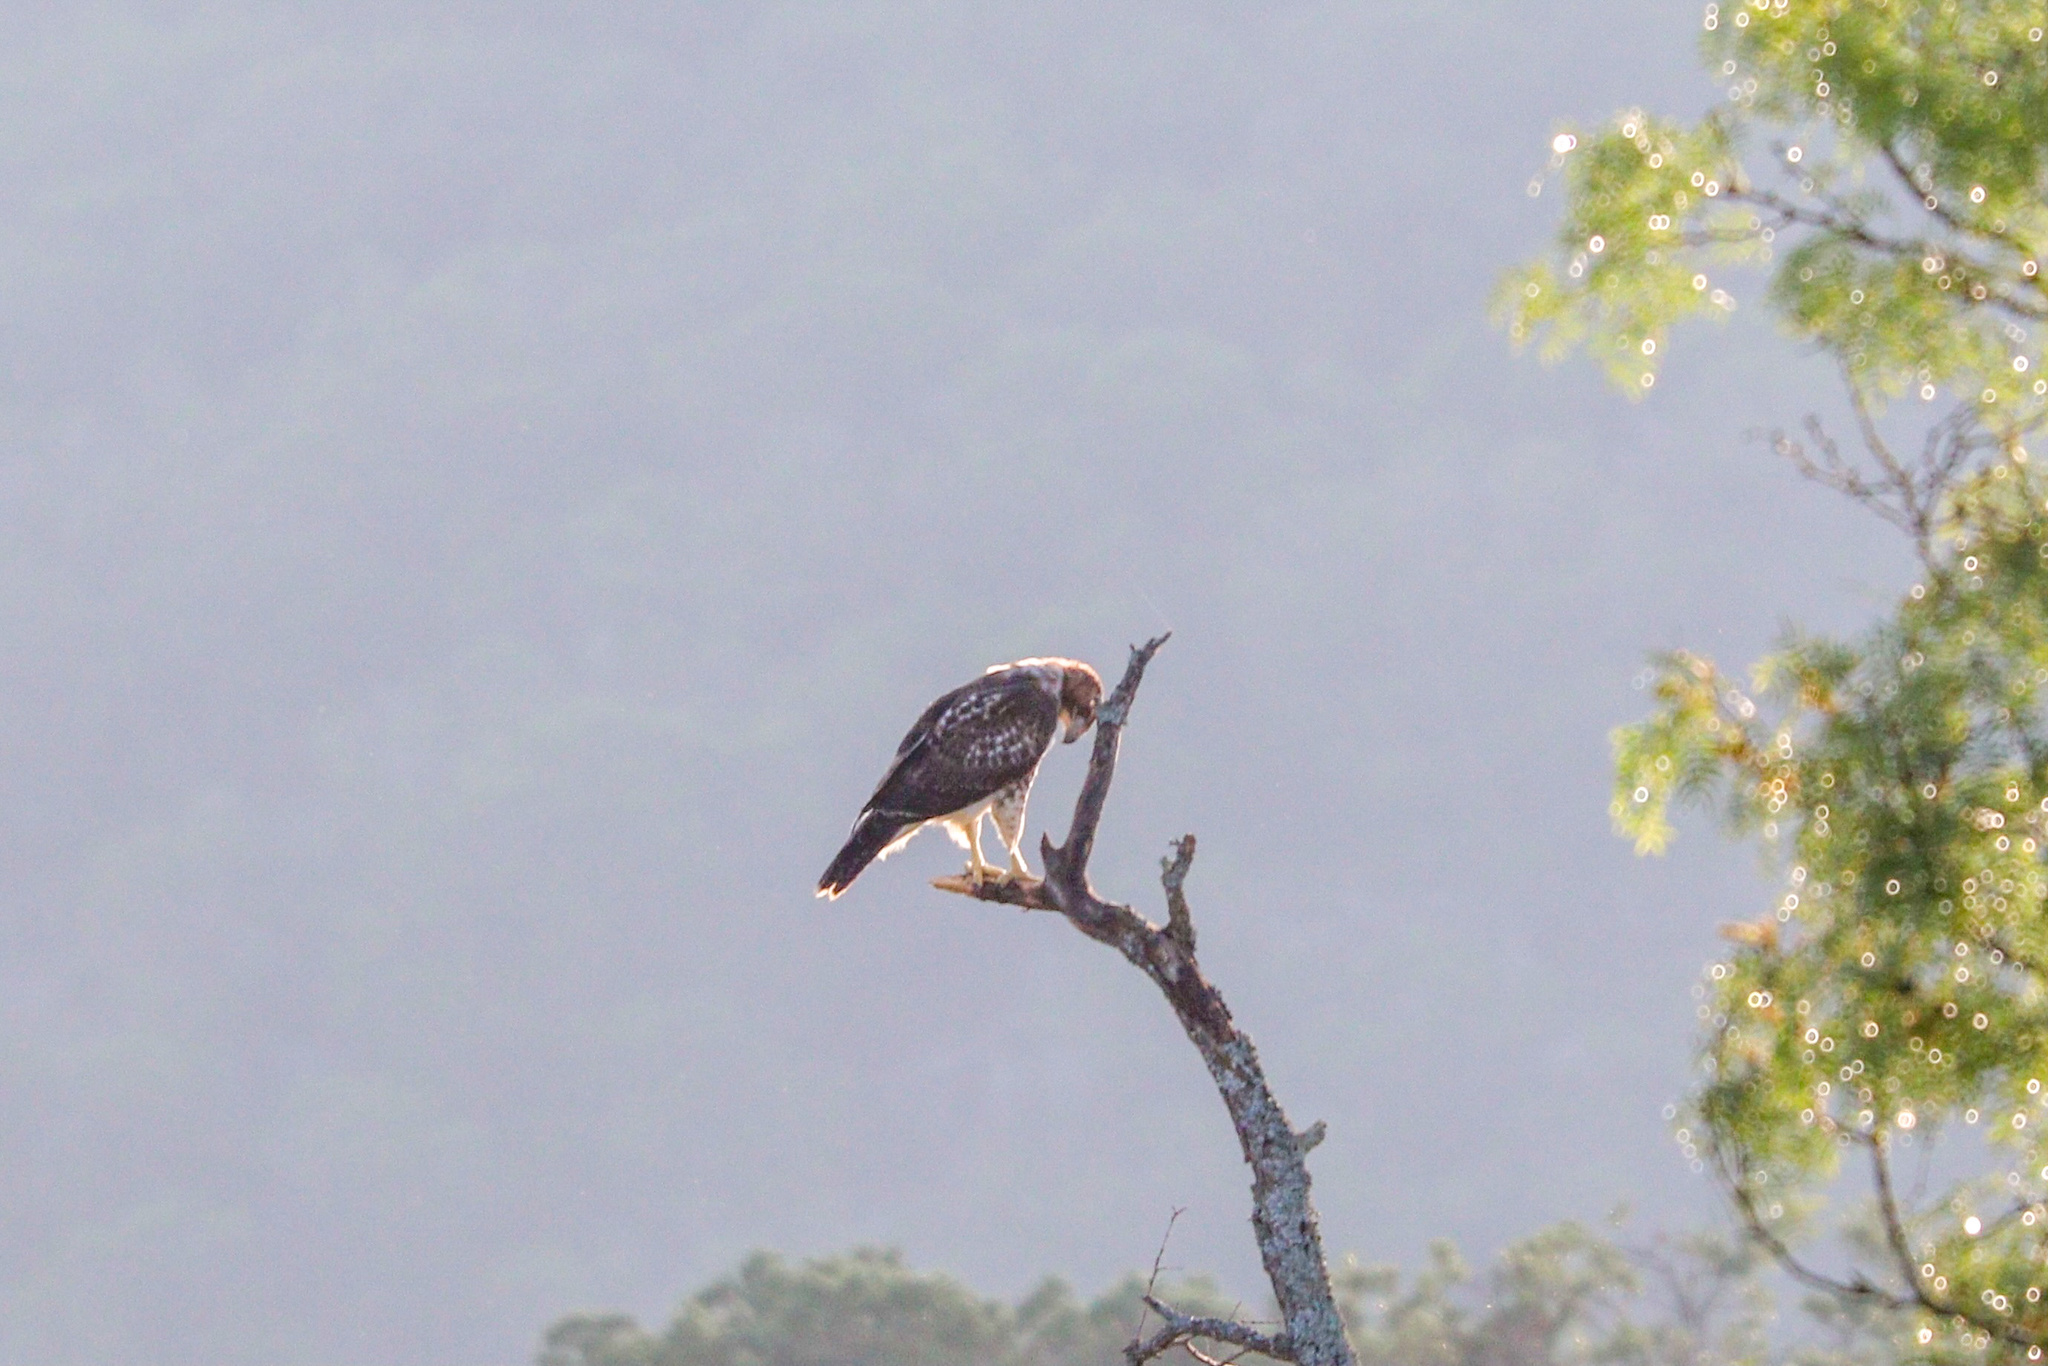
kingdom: Animalia
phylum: Chordata
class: Aves
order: Accipitriformes
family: Accipitridae
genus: Buteo
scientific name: Buteo jamaicensis
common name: Red-tailed hawk
